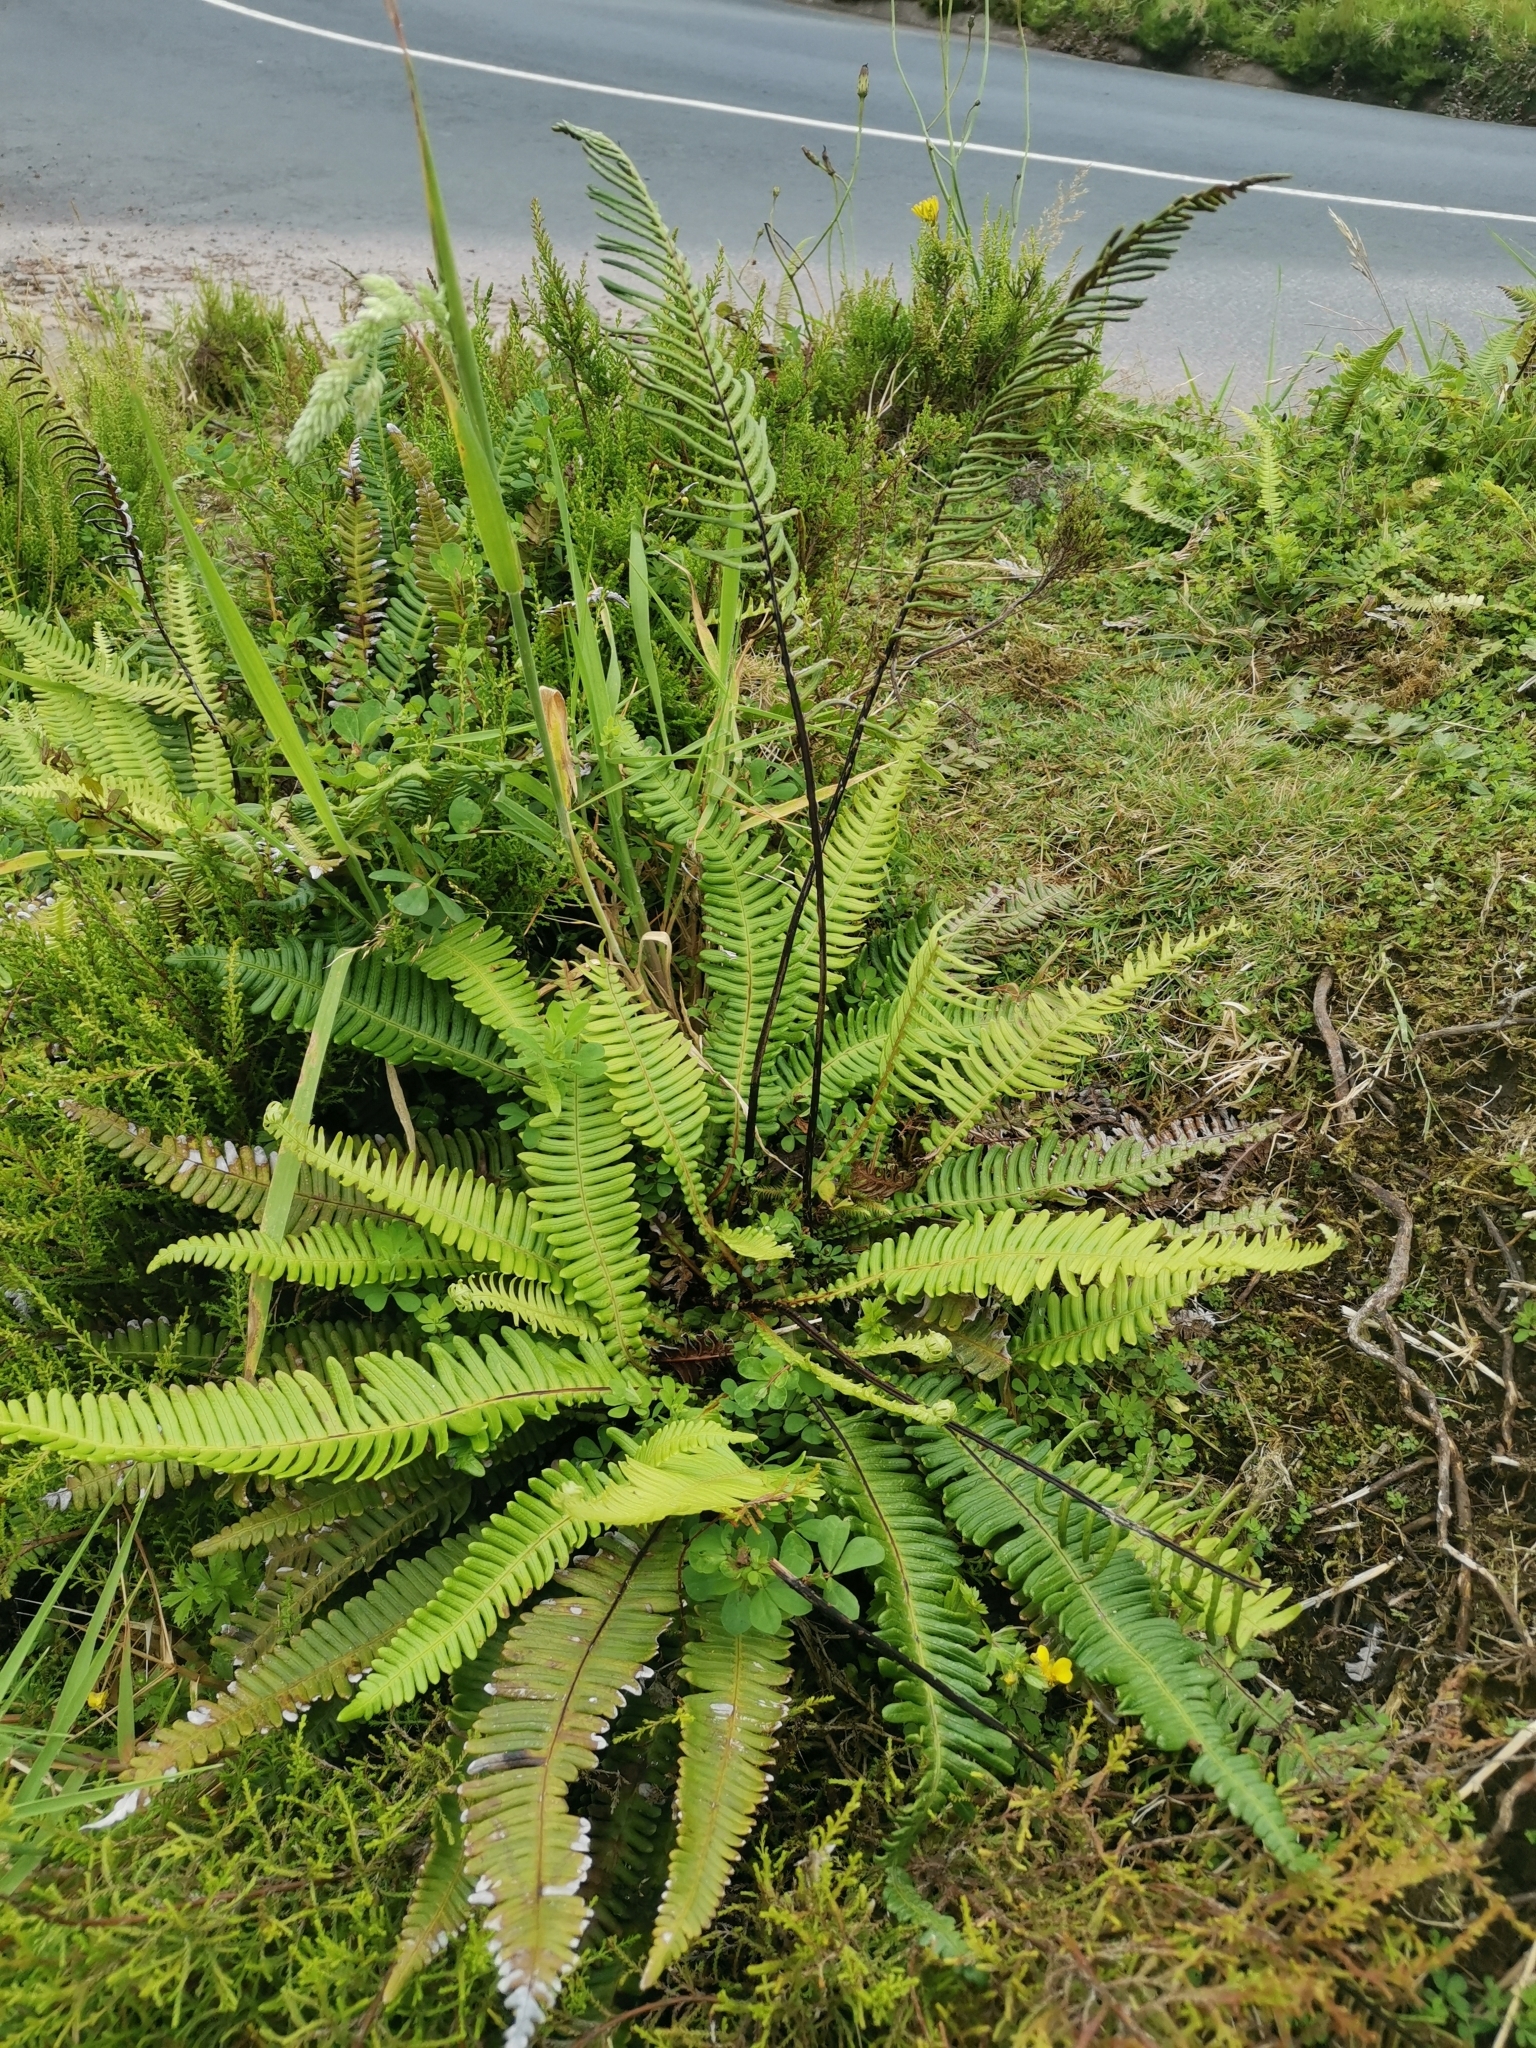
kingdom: Plantae
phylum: Tracheophyta
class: Polypodiopsida
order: Polypodiales
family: Blechnaceae
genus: Struthiopteris
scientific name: Struthiopteris spicant
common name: Deer fern
